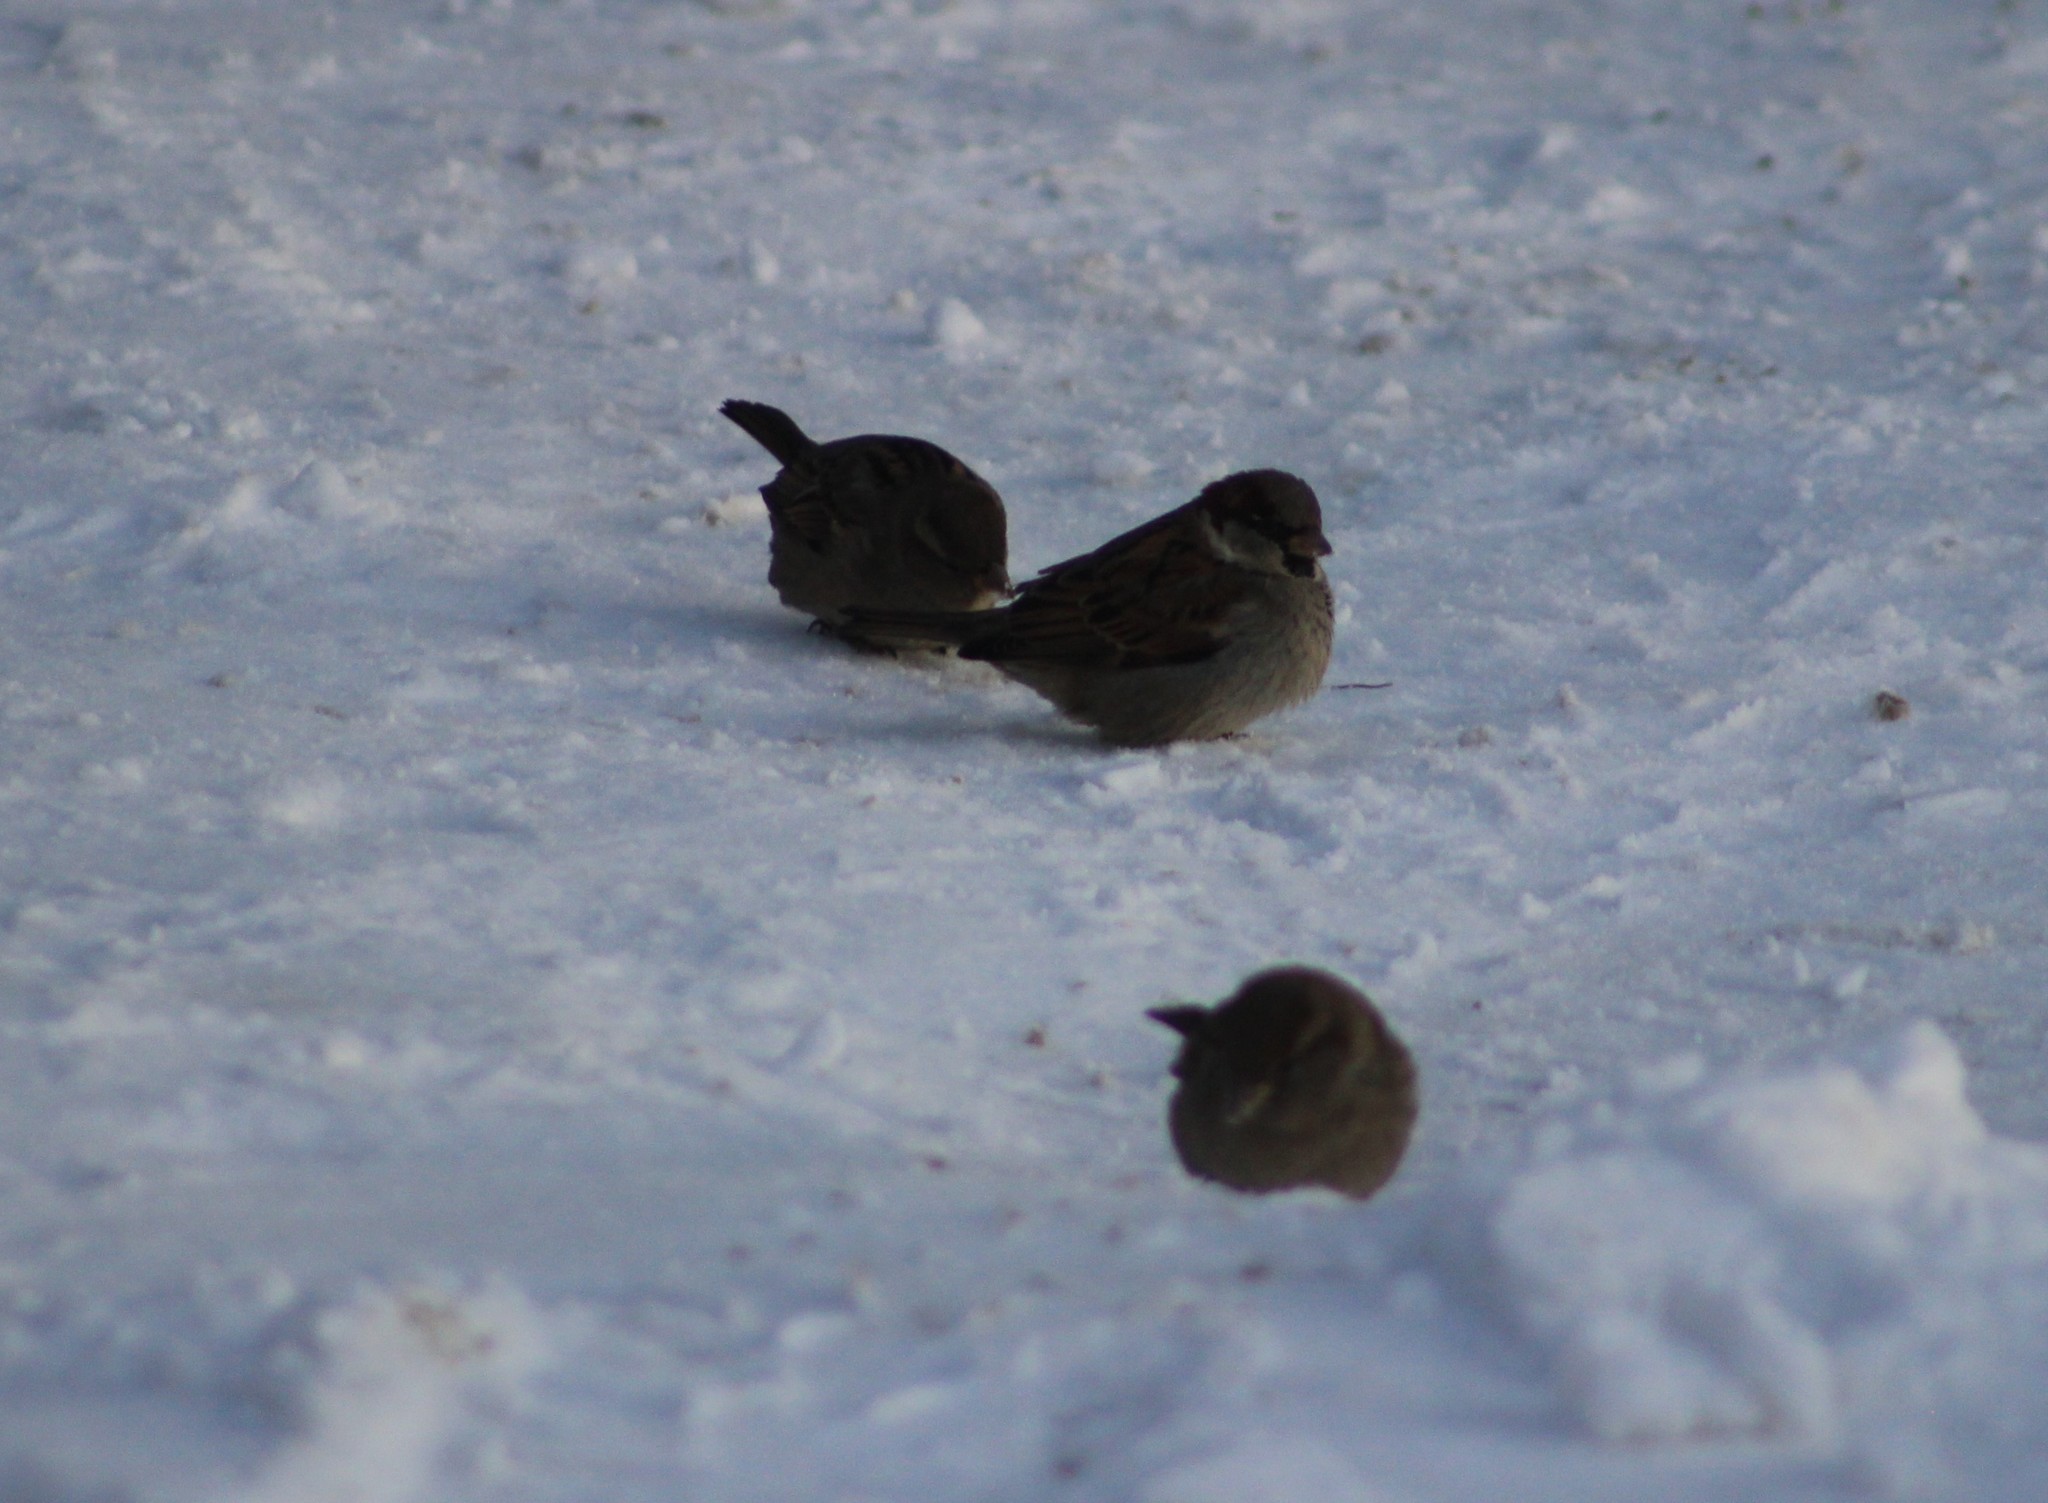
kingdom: Animalia
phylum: Chordata
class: Aves
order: Passeriformes
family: Passeridae
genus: Passer
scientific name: Passer domesticus
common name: House sparrow
